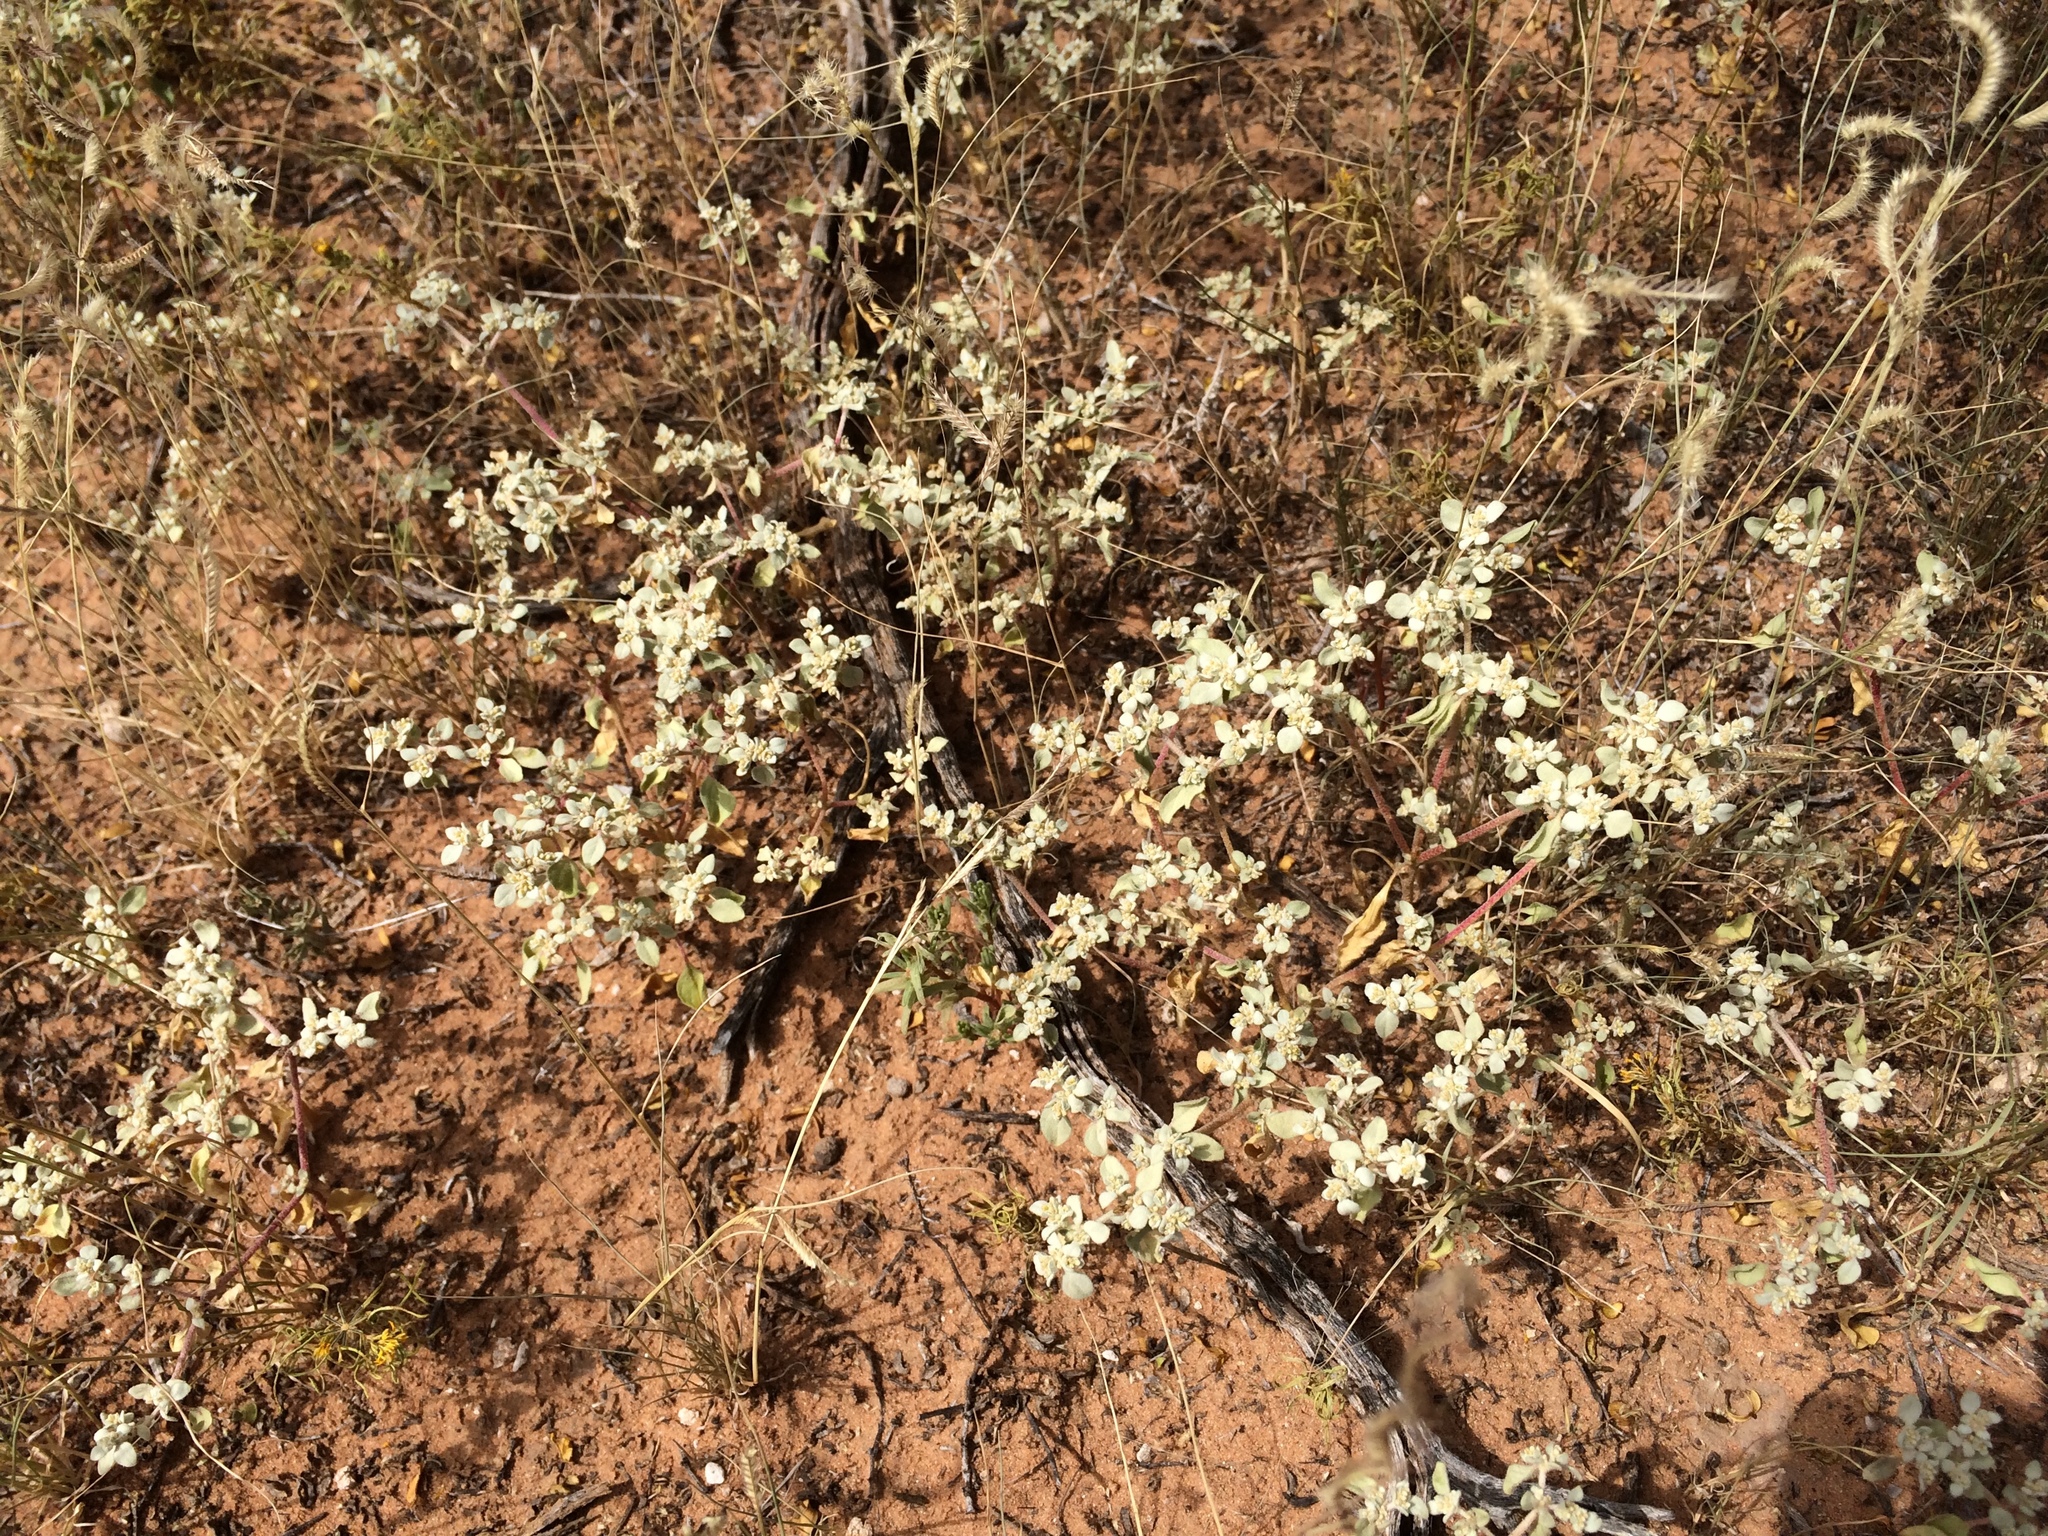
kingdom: Plantae
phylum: Tracheophyta
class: Magnoliopsida
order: Caryophyllales
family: Amaranthaceae
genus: Tidestromia
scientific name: Tidestromia lanuginosa
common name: Woolly tidestromia
